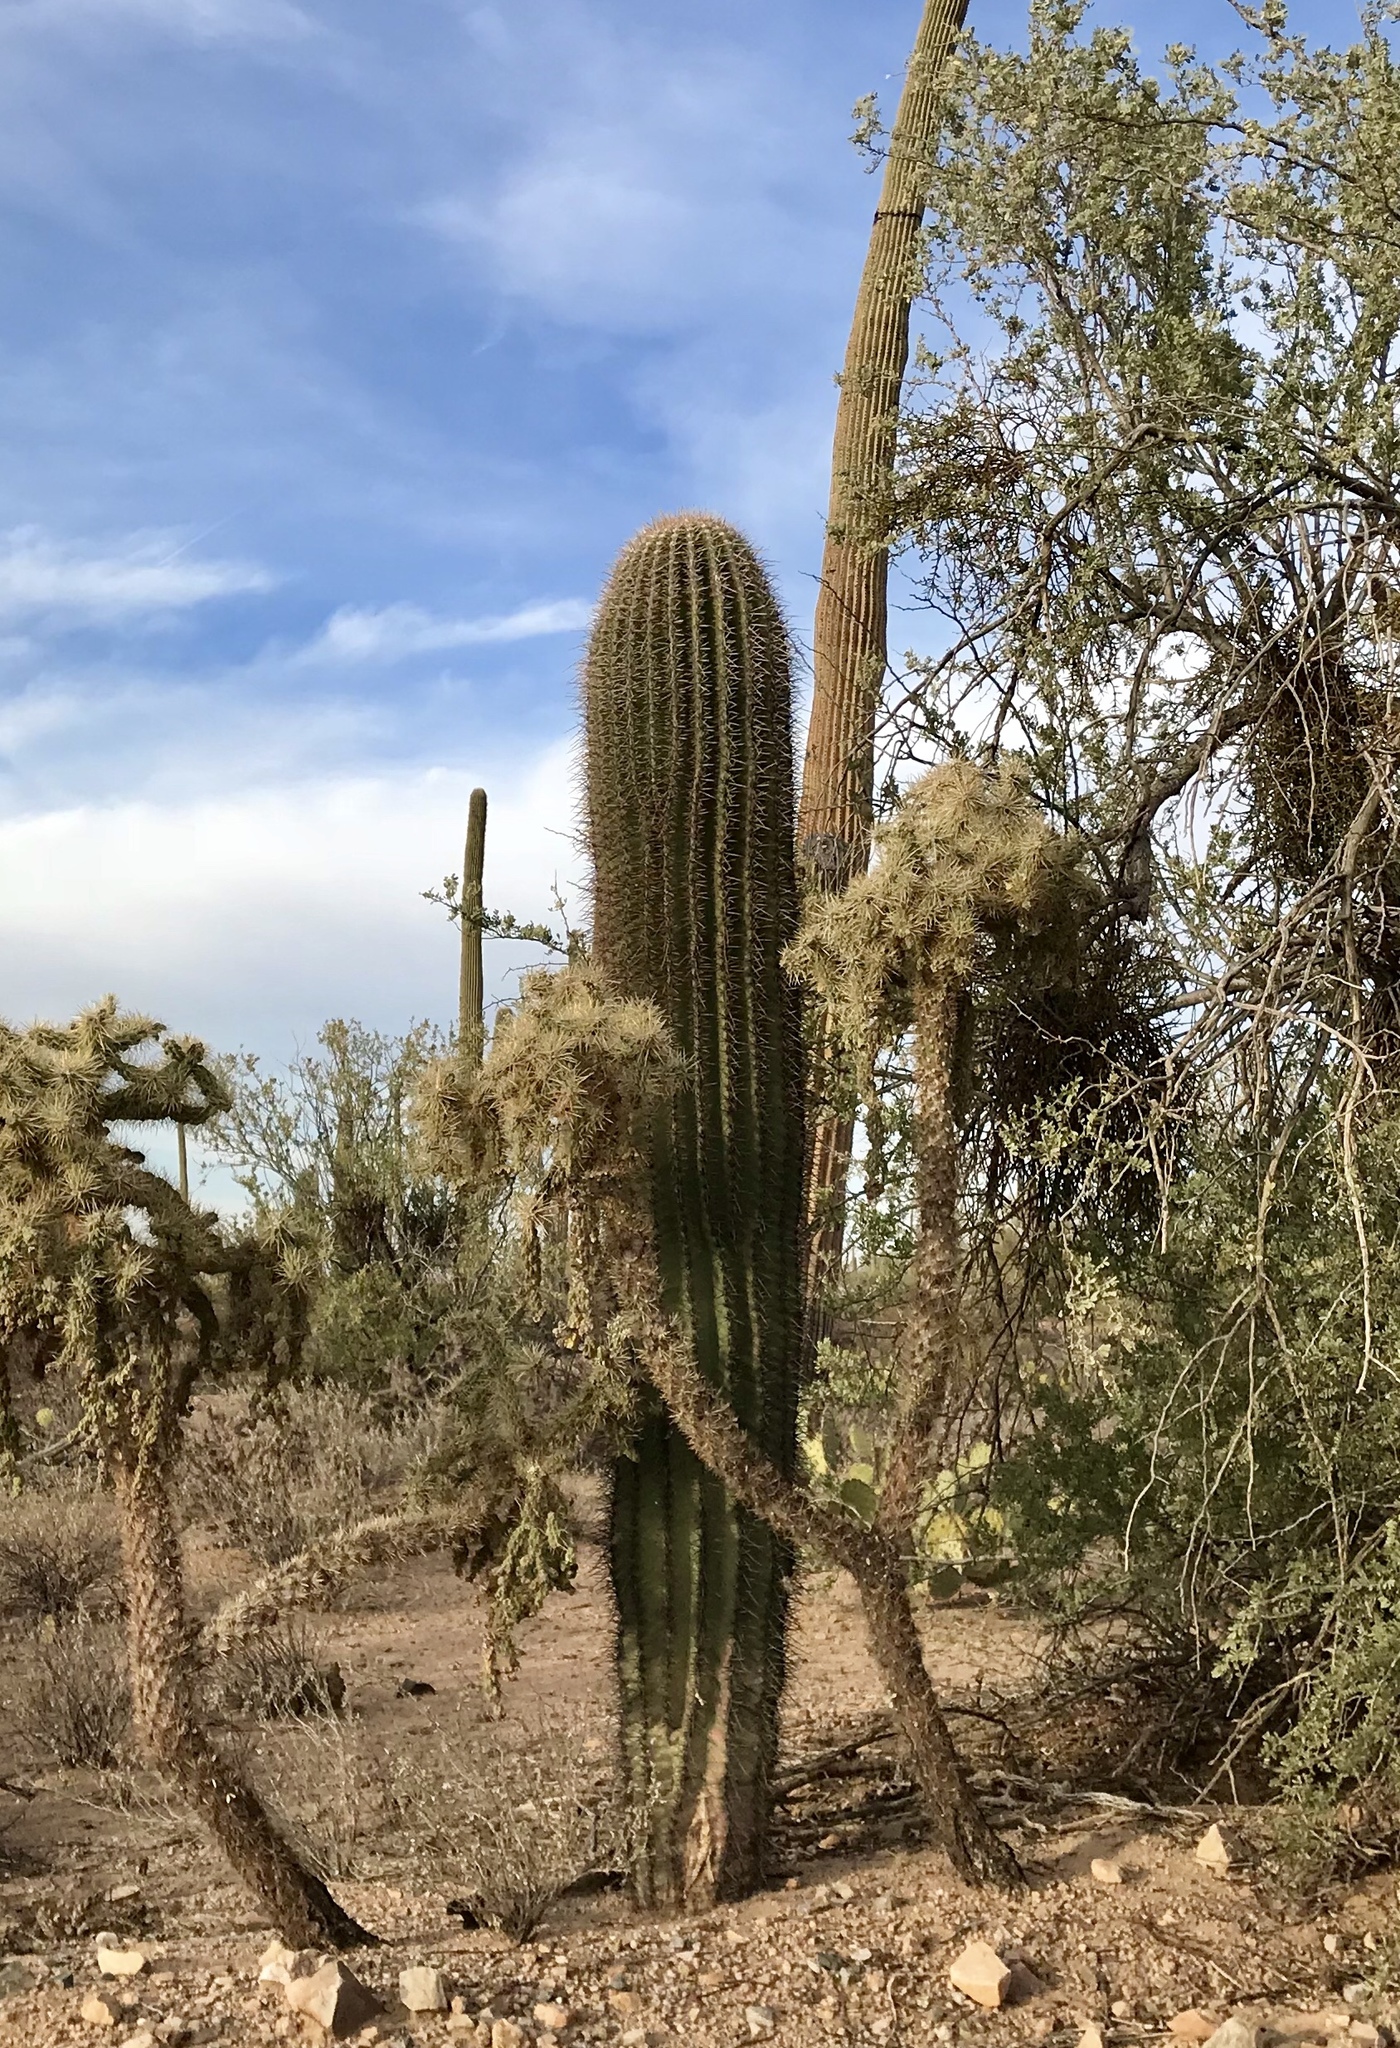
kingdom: Plantae
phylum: Tracheophyta
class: Magnoliopsida
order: Caryophyllales
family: Cactaceae
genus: Carnegiea
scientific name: Carnegiea gigantea
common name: Saguaro
